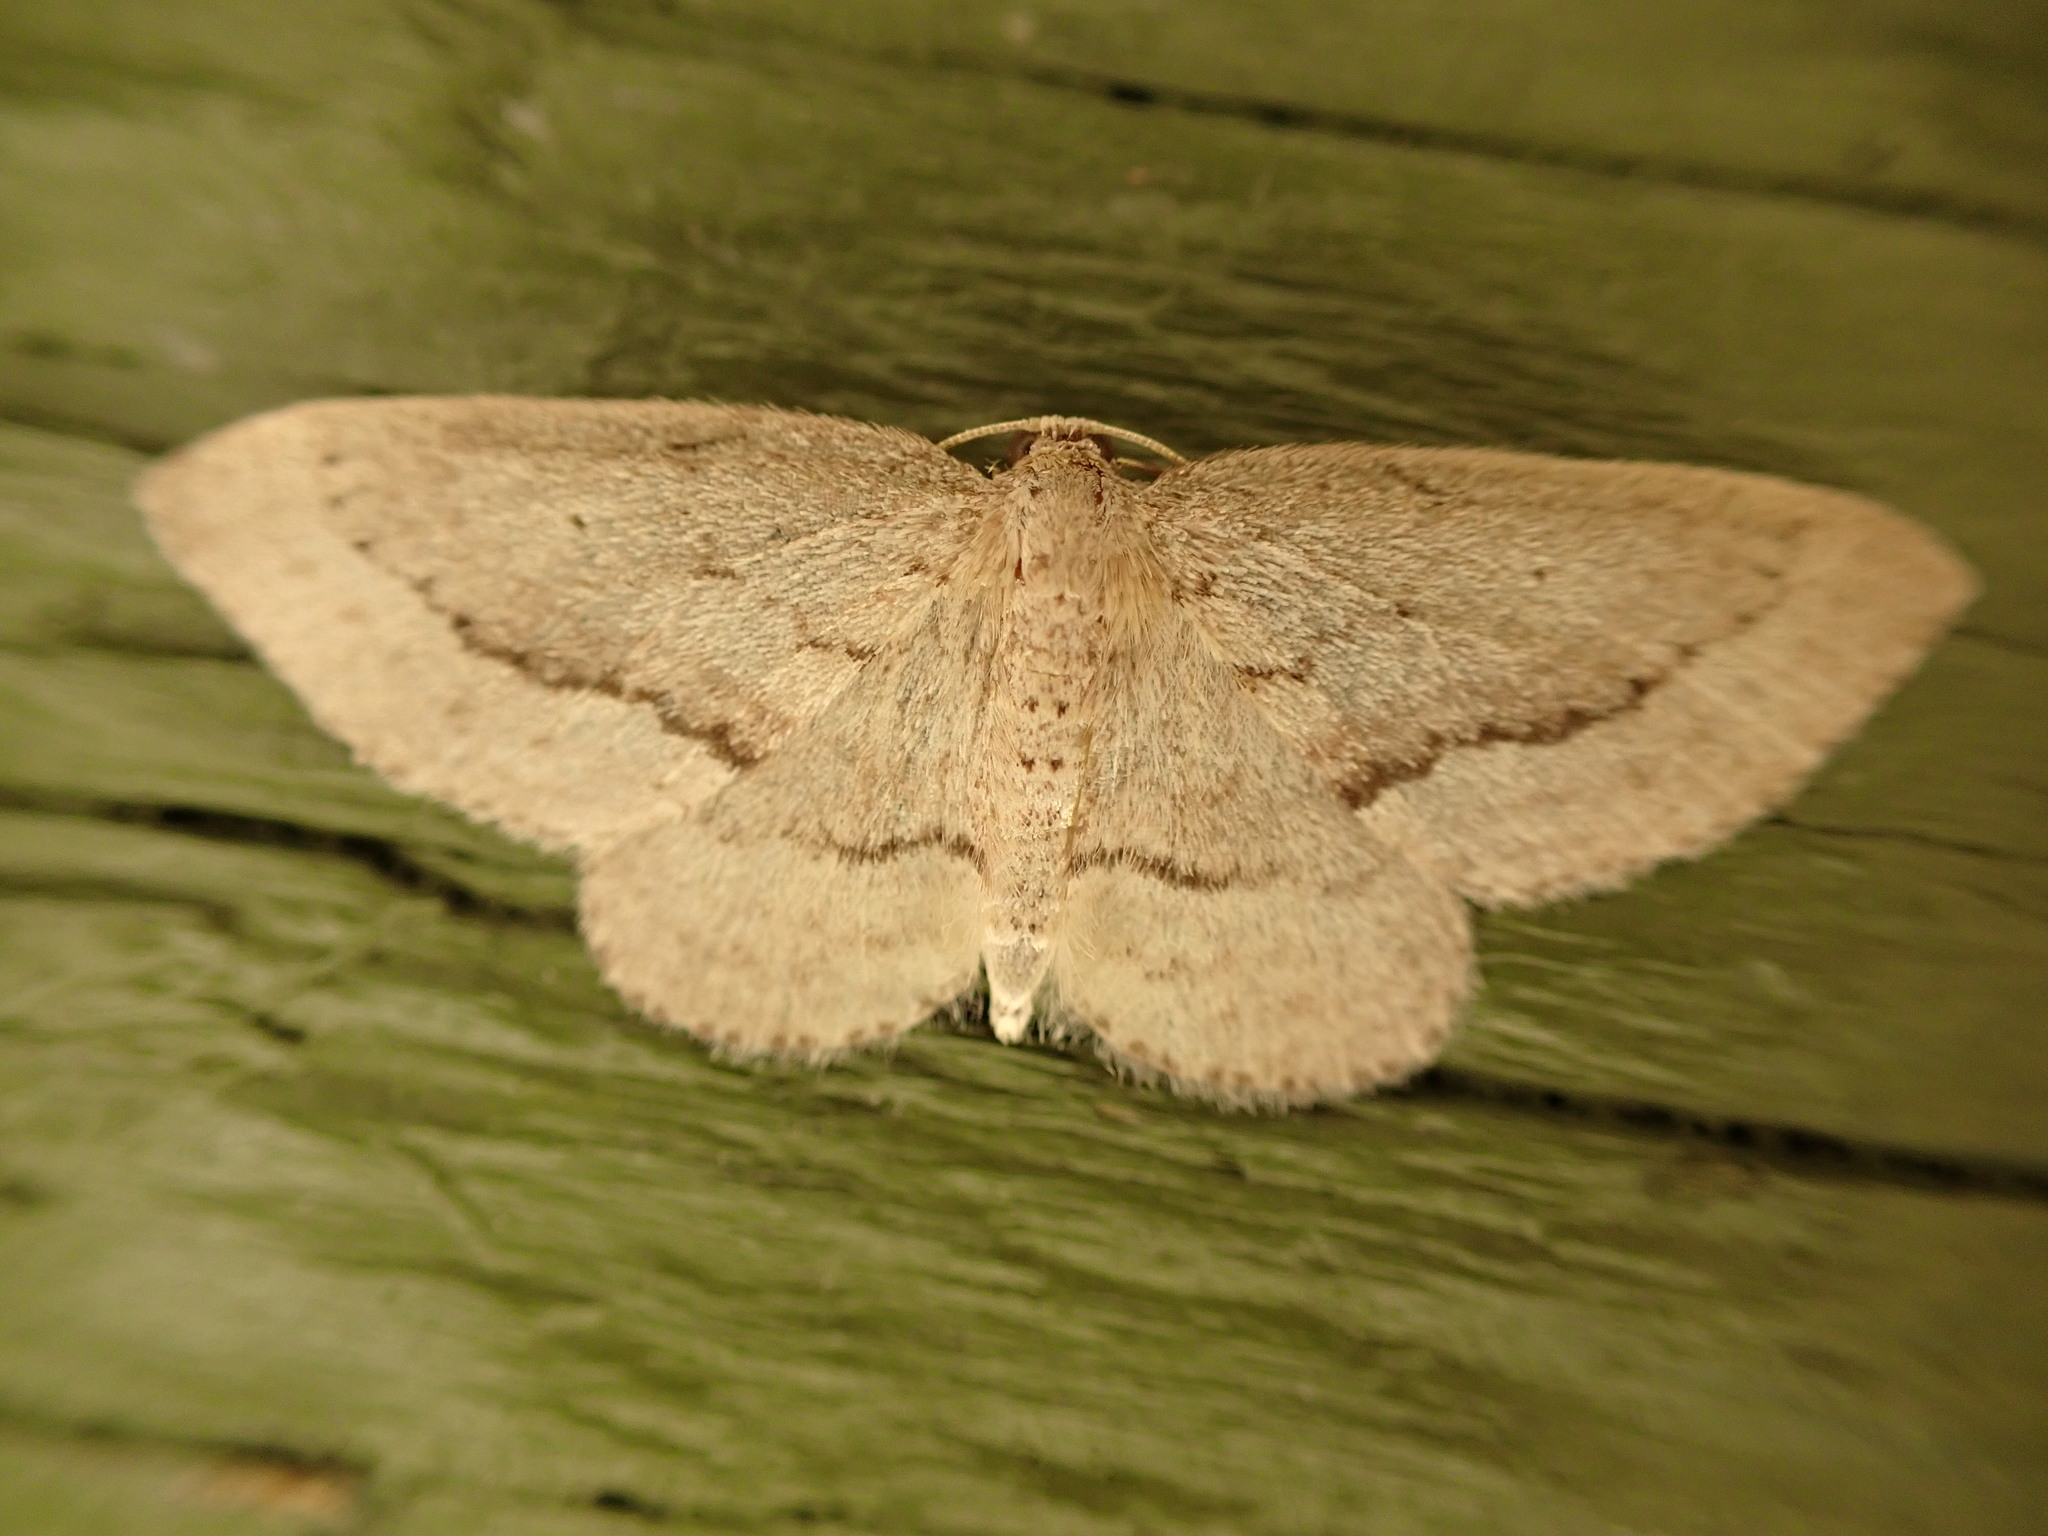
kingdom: Animalia
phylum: Arthropoda
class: Insecta
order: Lepidoptera
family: Geometridae
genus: Poecilasthena
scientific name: Poecilasthena schistaria
